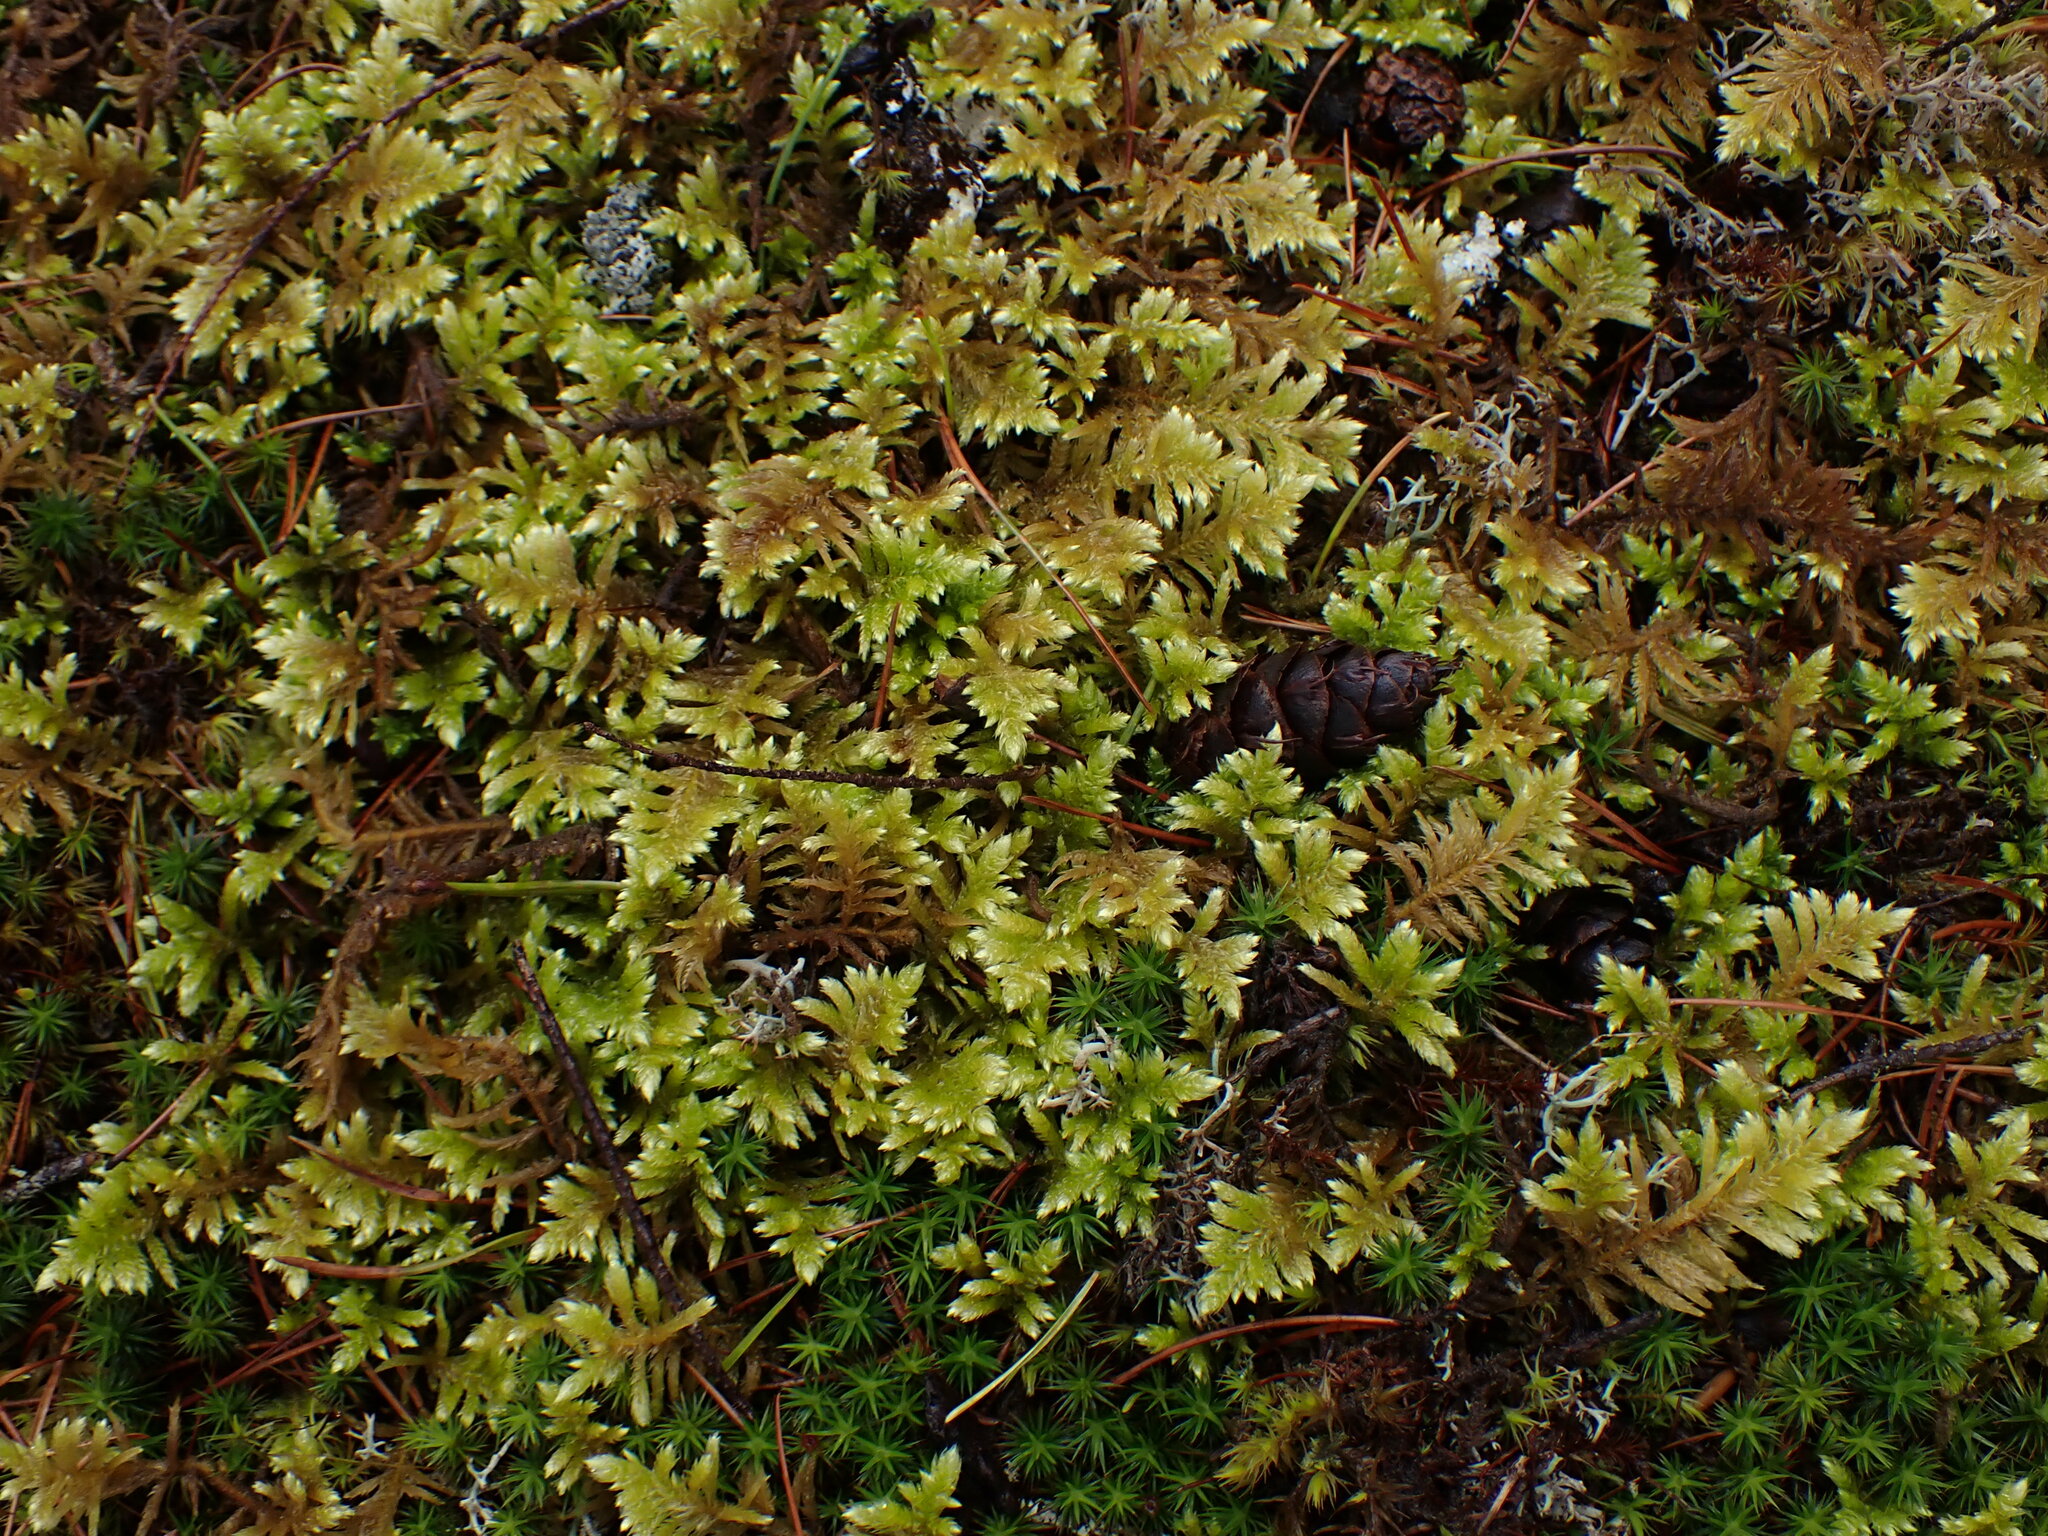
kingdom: Plantae
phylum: Bryophyta
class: Bryopsida
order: Hypnales
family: Brachytheciaceae
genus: Homalothecium
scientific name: Homalothecium megaptilum
